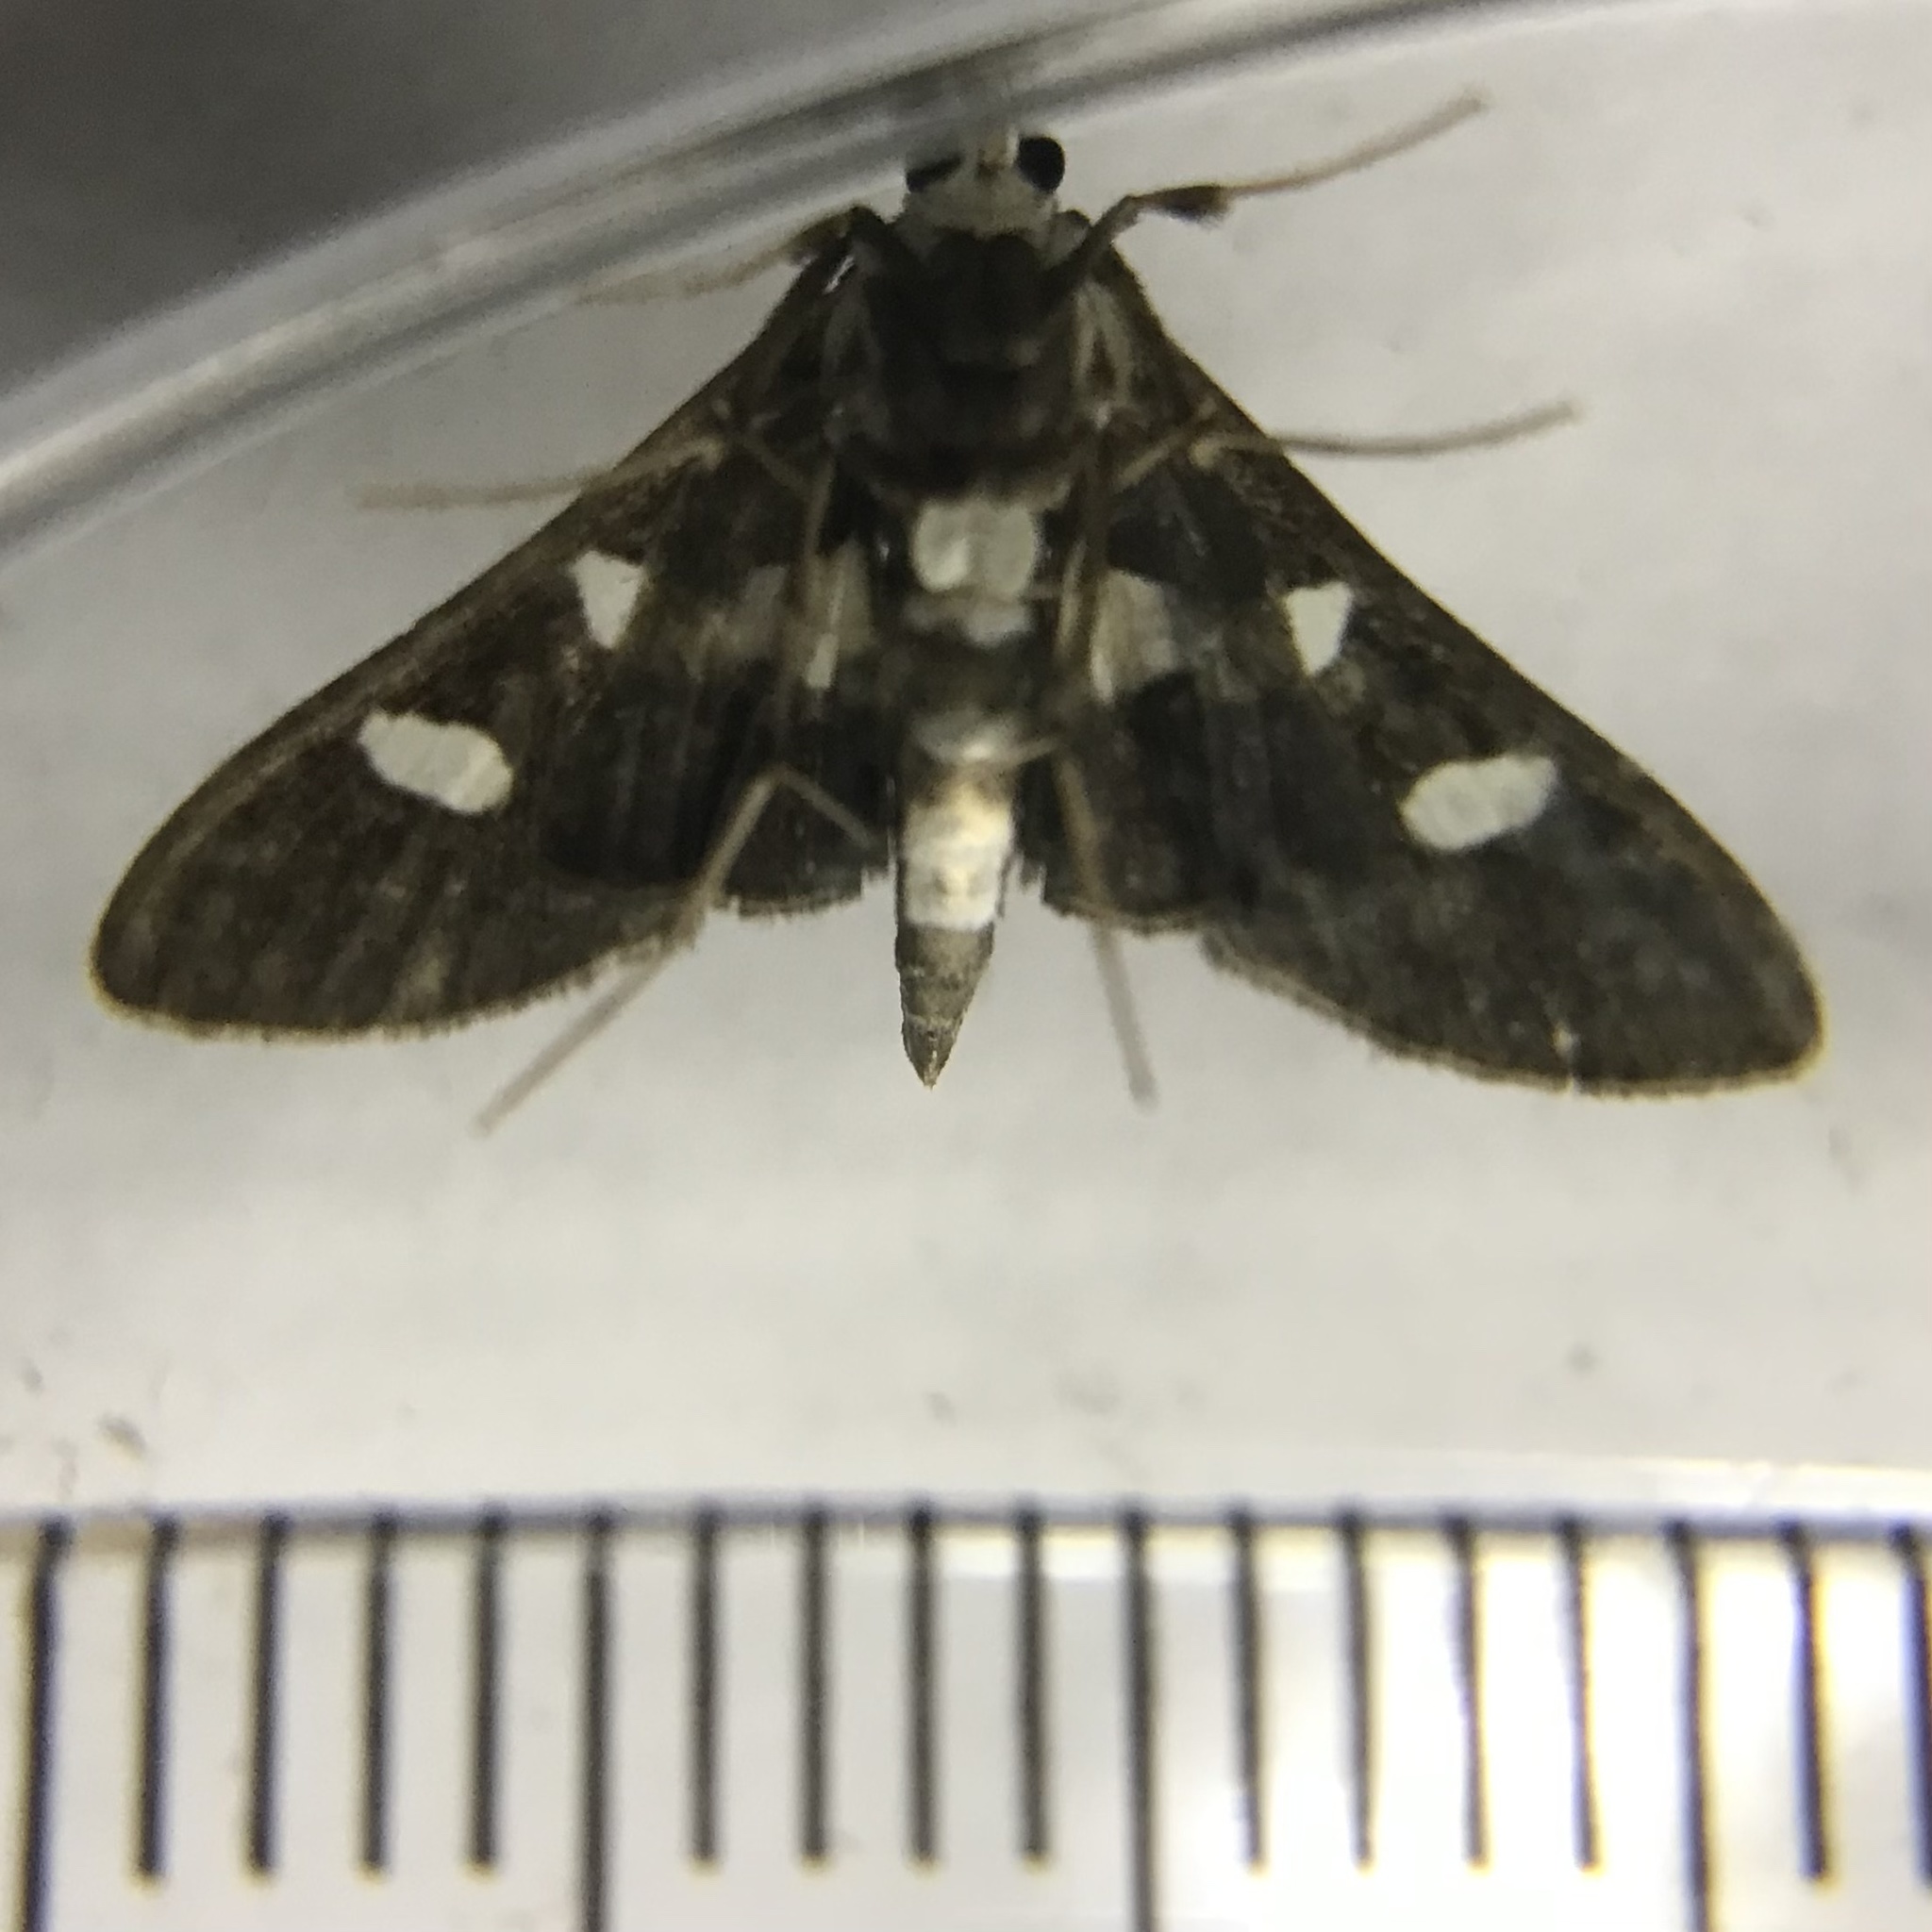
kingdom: Animalia
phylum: Arthropoda
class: Insecta
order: Lepidoptera
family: Crambidae
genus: Desmia
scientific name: Desmia funeralis
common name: Grape leaf folder moth
